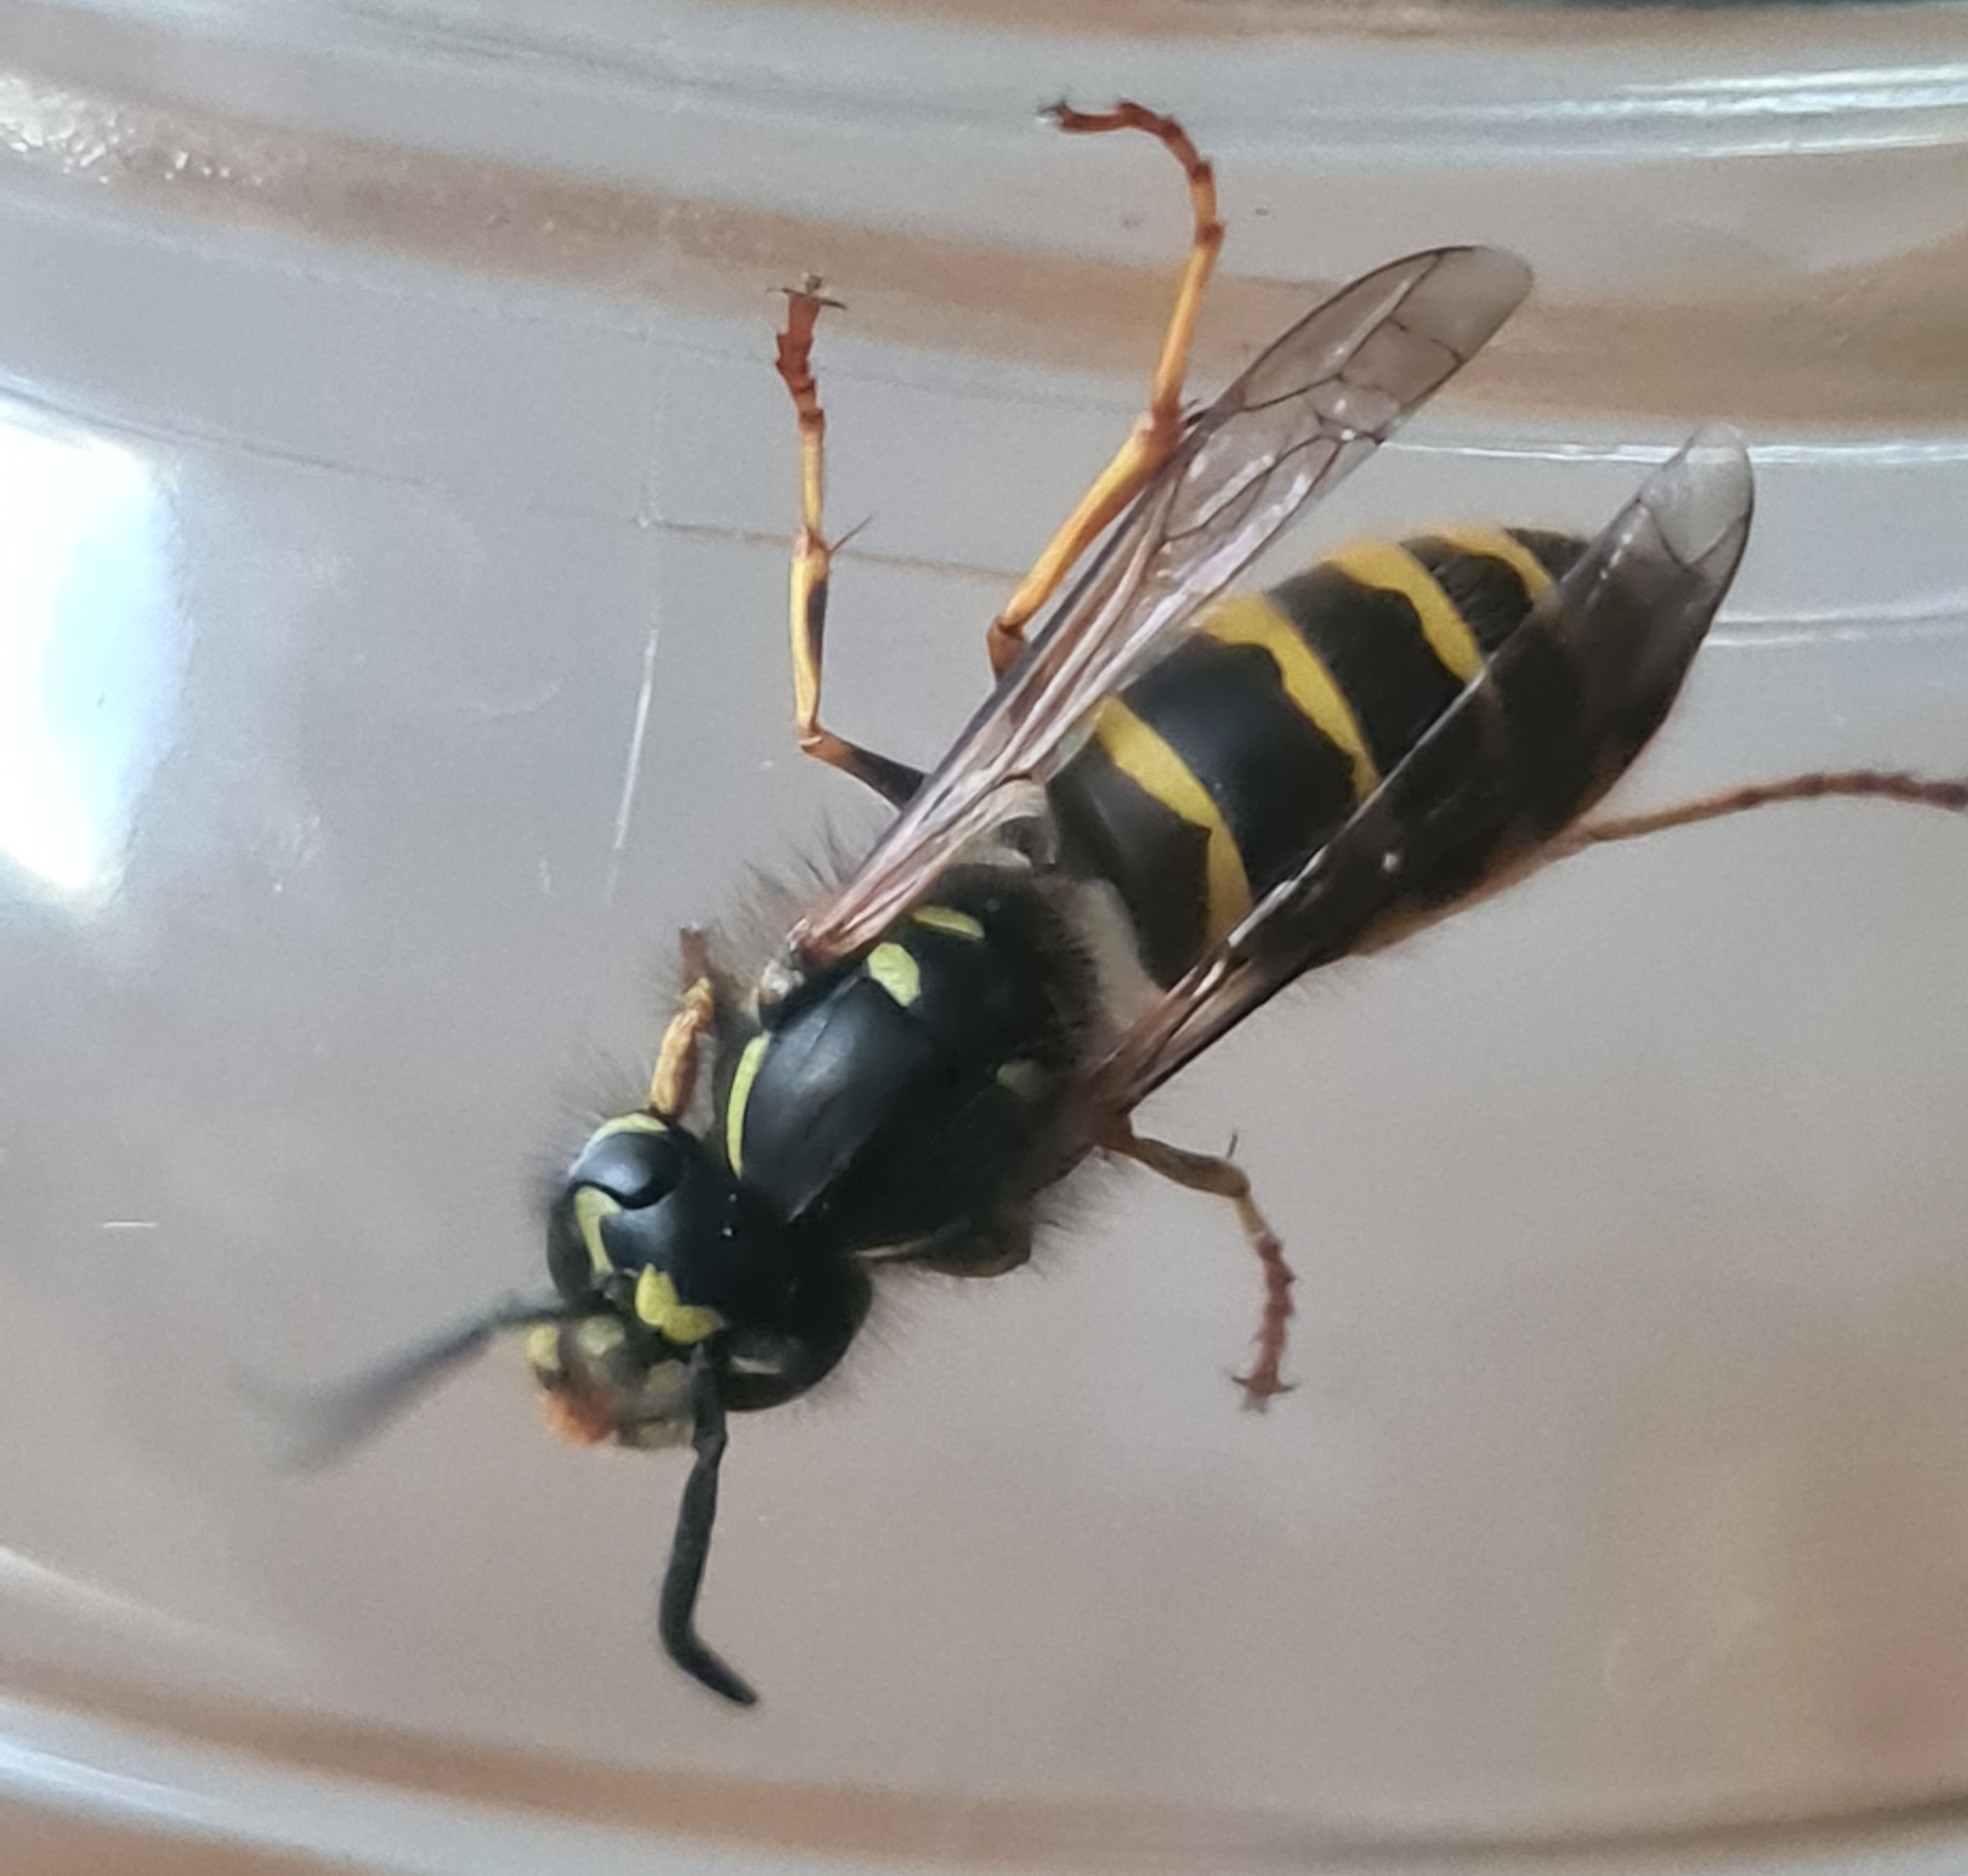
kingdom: Animalia
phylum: Arthropoda
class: Insecta
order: Hymenoptera
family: Vespidae
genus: Vespula
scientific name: Vespula vulgaris
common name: Common wasp
